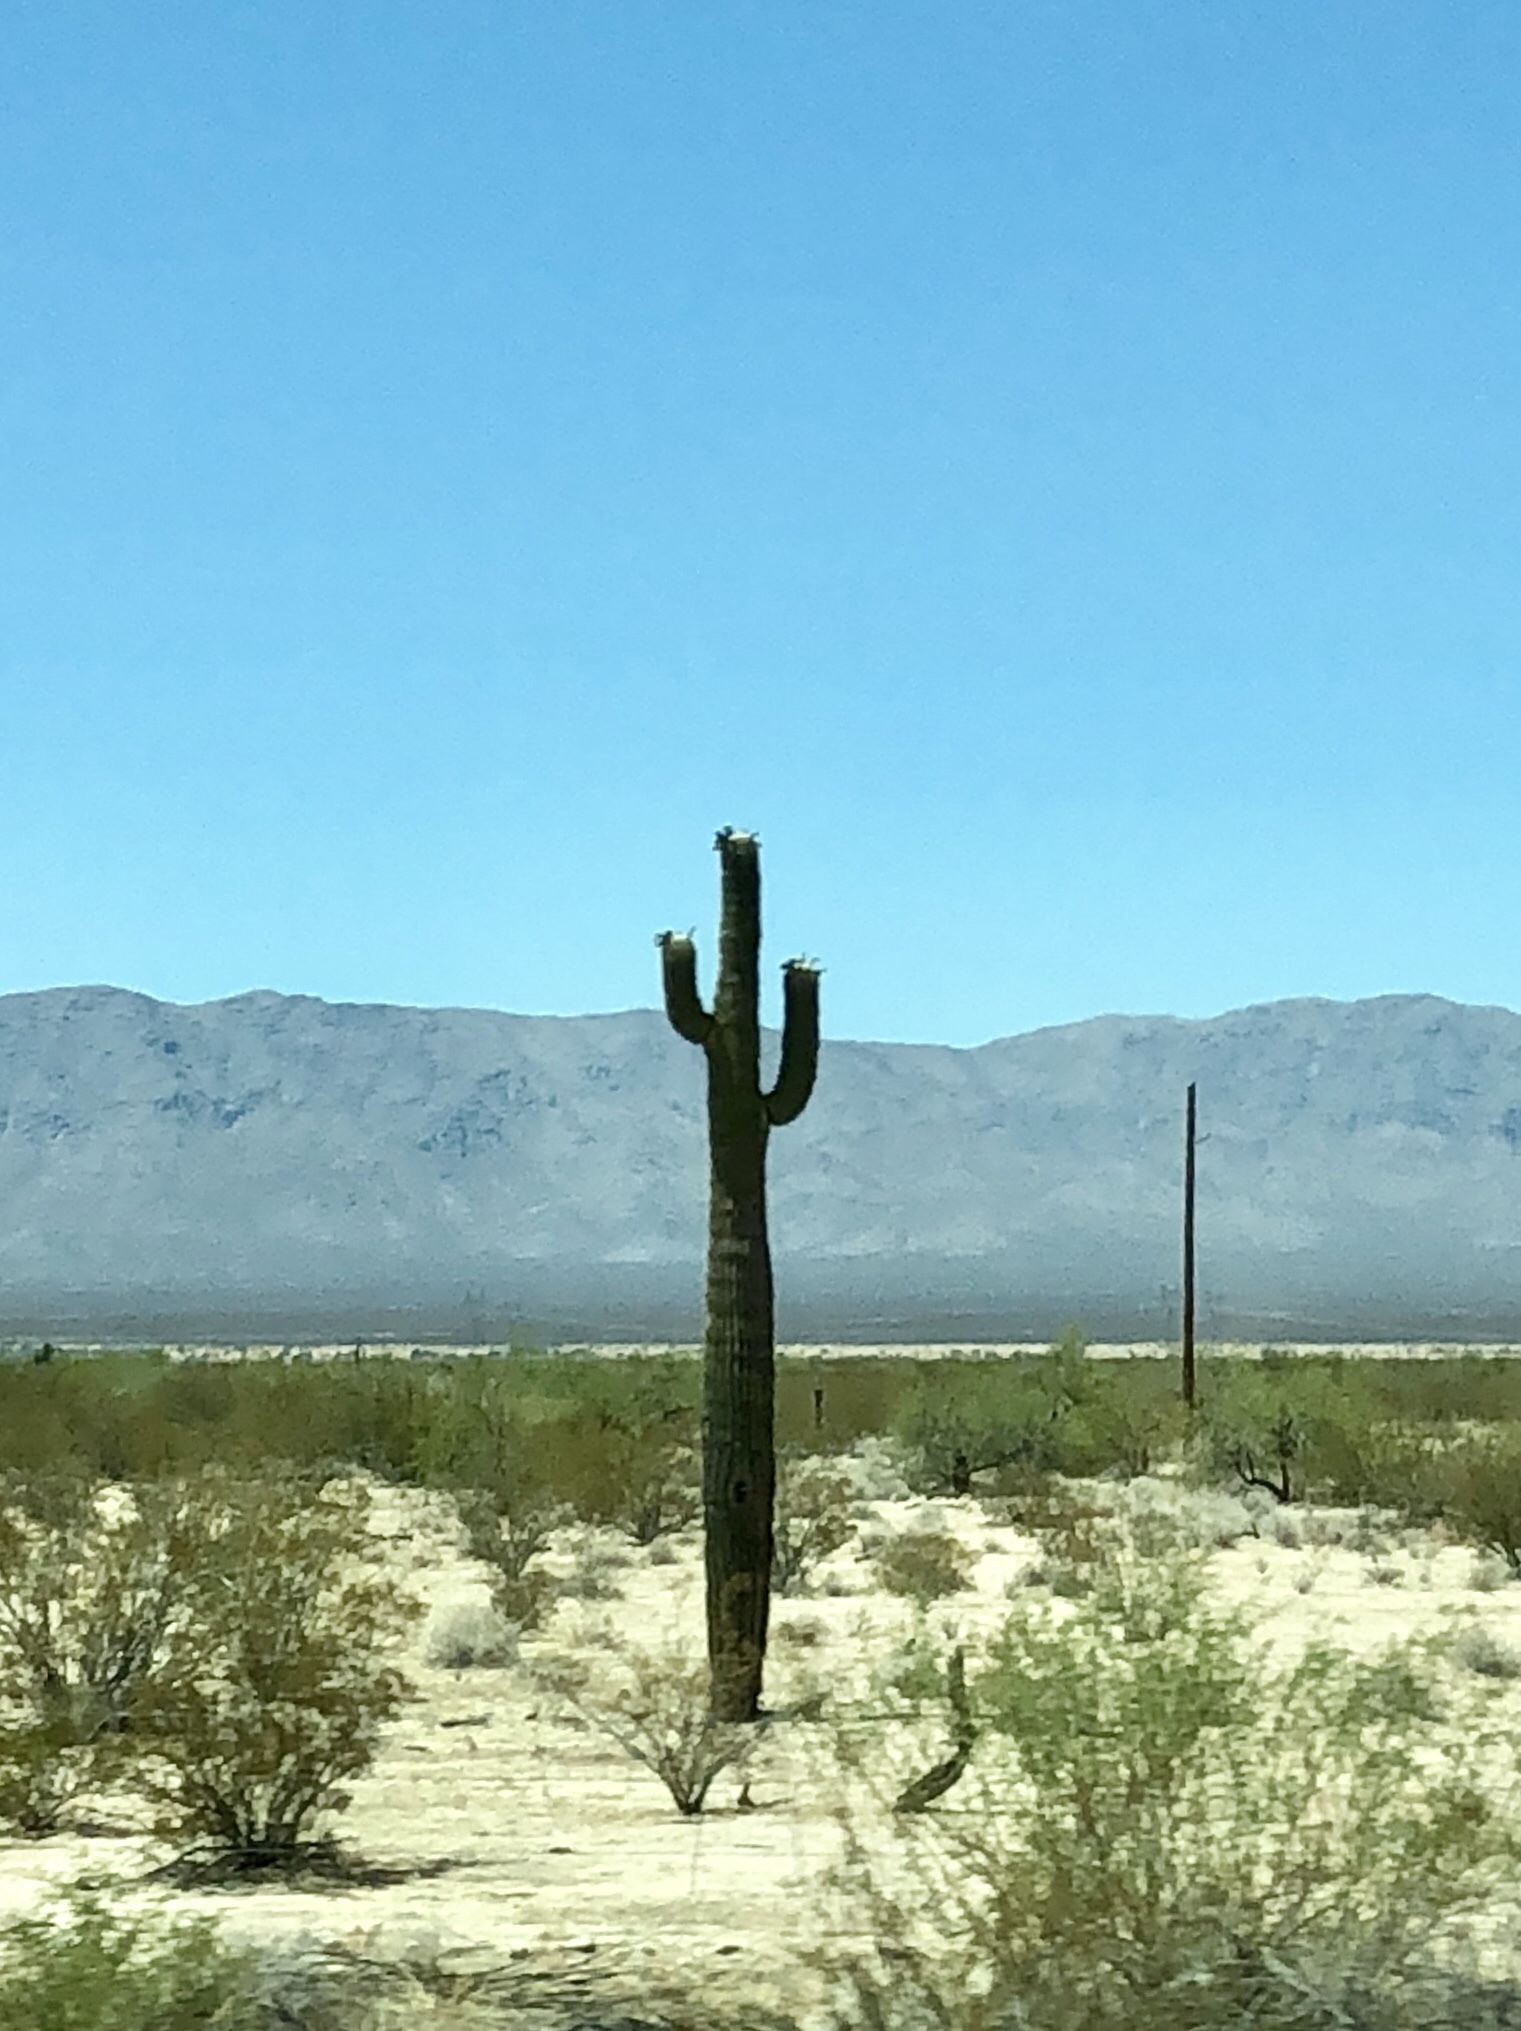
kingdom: Plantae
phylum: Tracheophyta
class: Magnoliopsida
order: Caryophyllales
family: Cactaceae
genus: Carnegiea
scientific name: Carnegiea gigantea
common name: Saguaro
